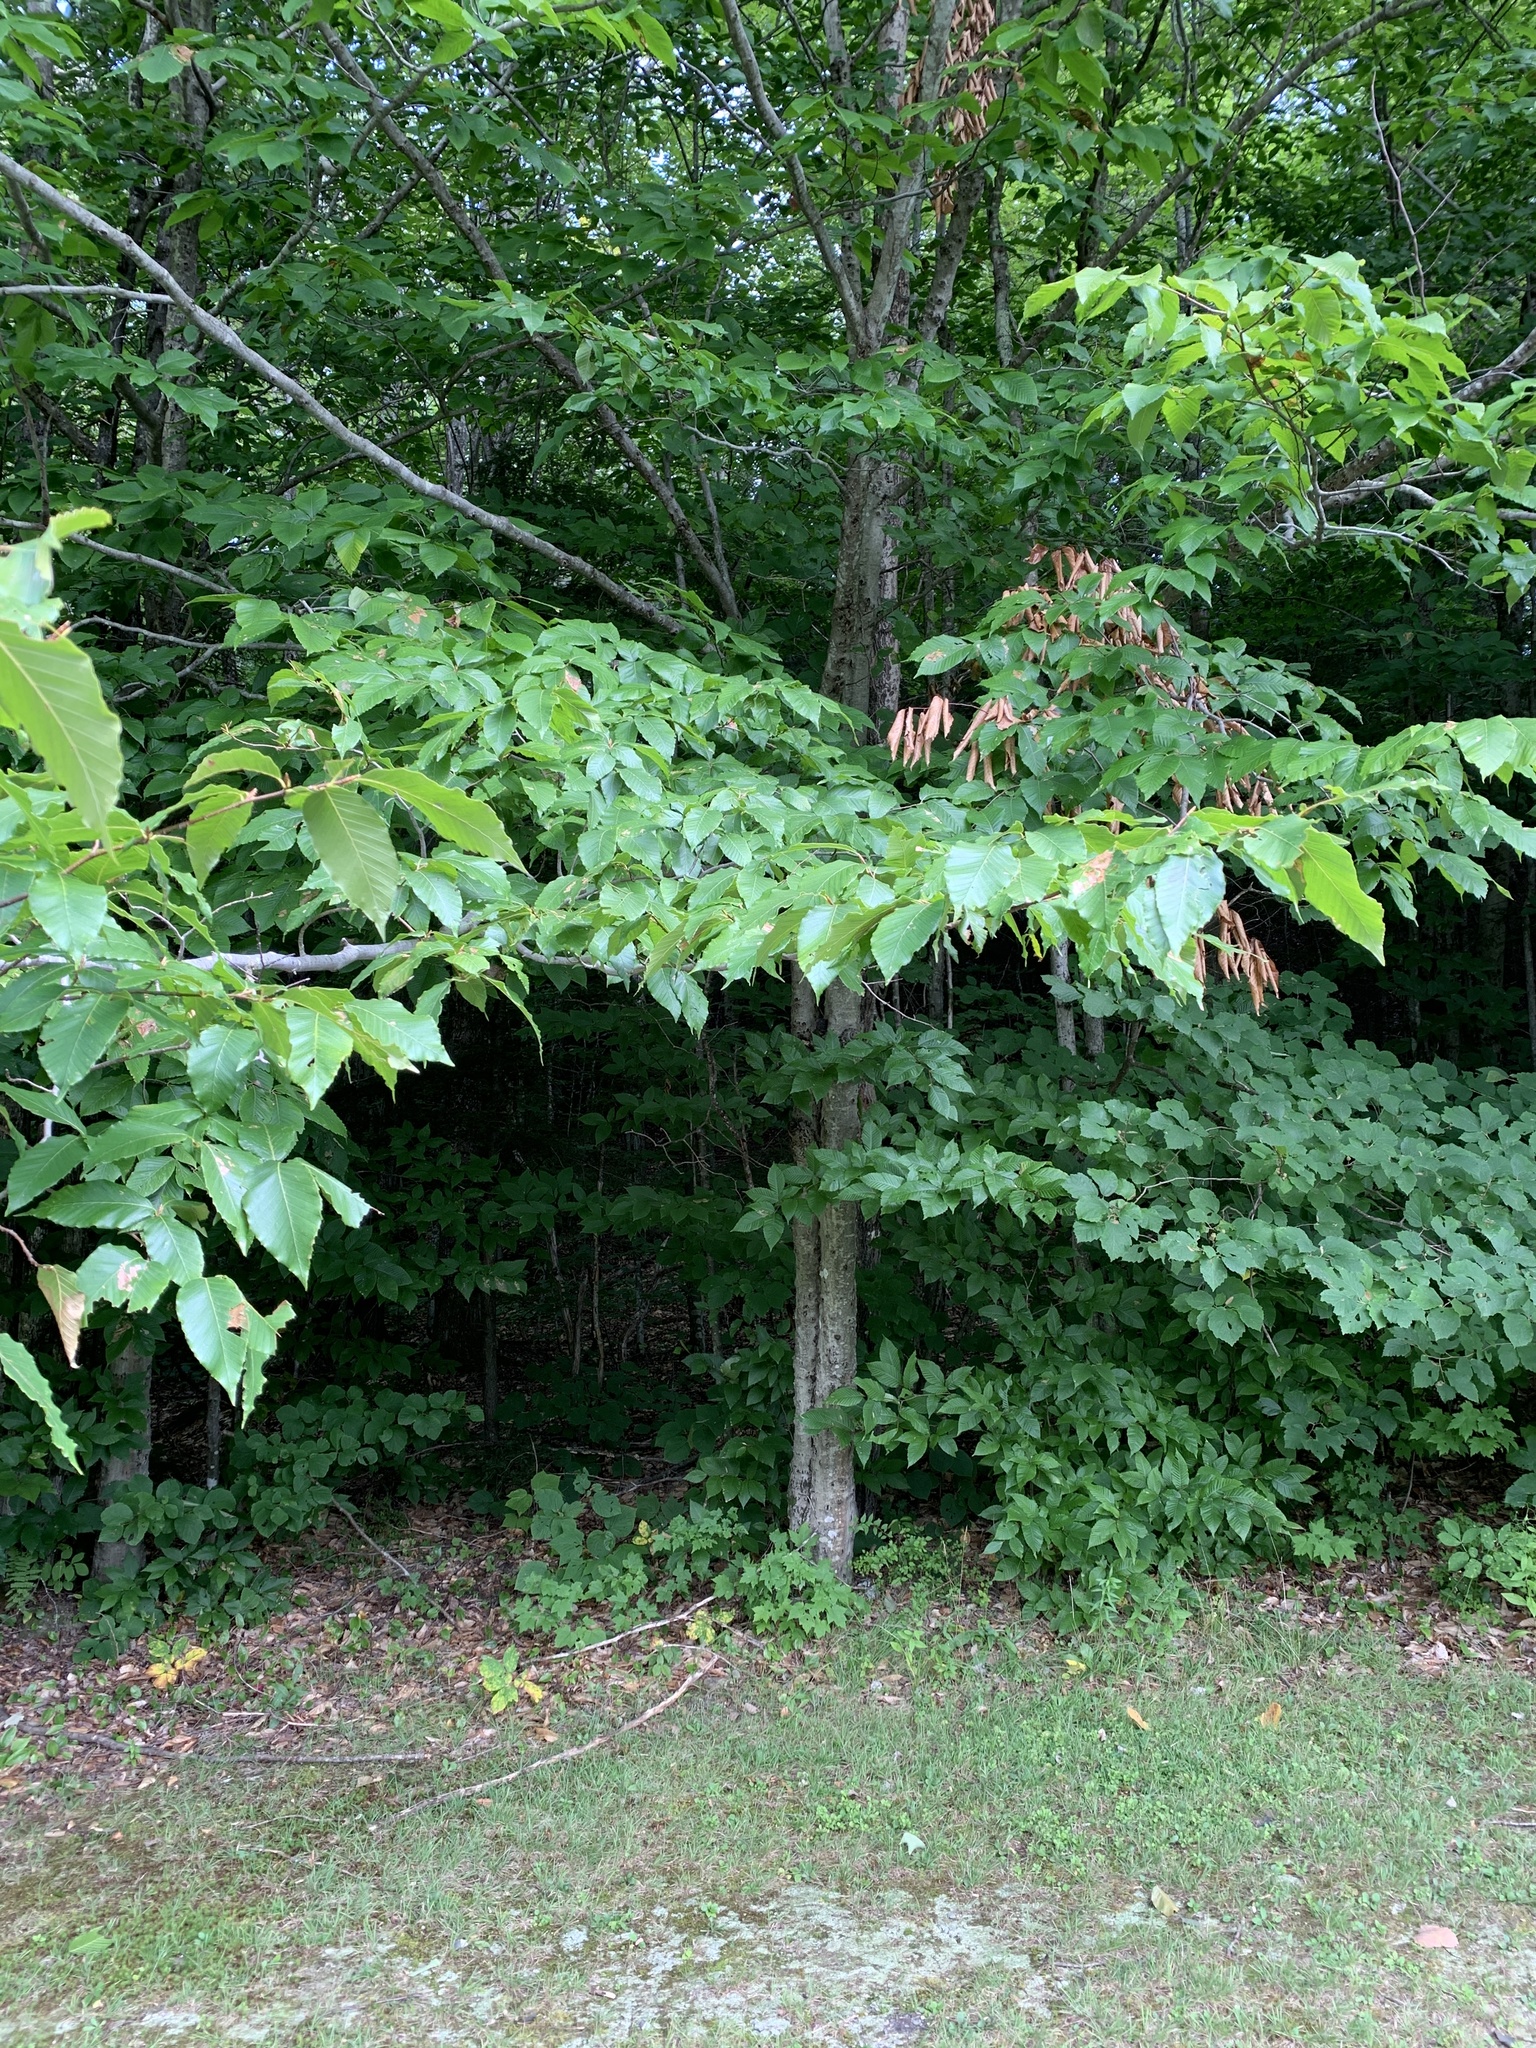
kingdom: Plantae
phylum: Tracheophyta
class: Magnoliopsida
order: Fagales
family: Fagaceae
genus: Fagus
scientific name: Fagus grandifolia
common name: American beech
